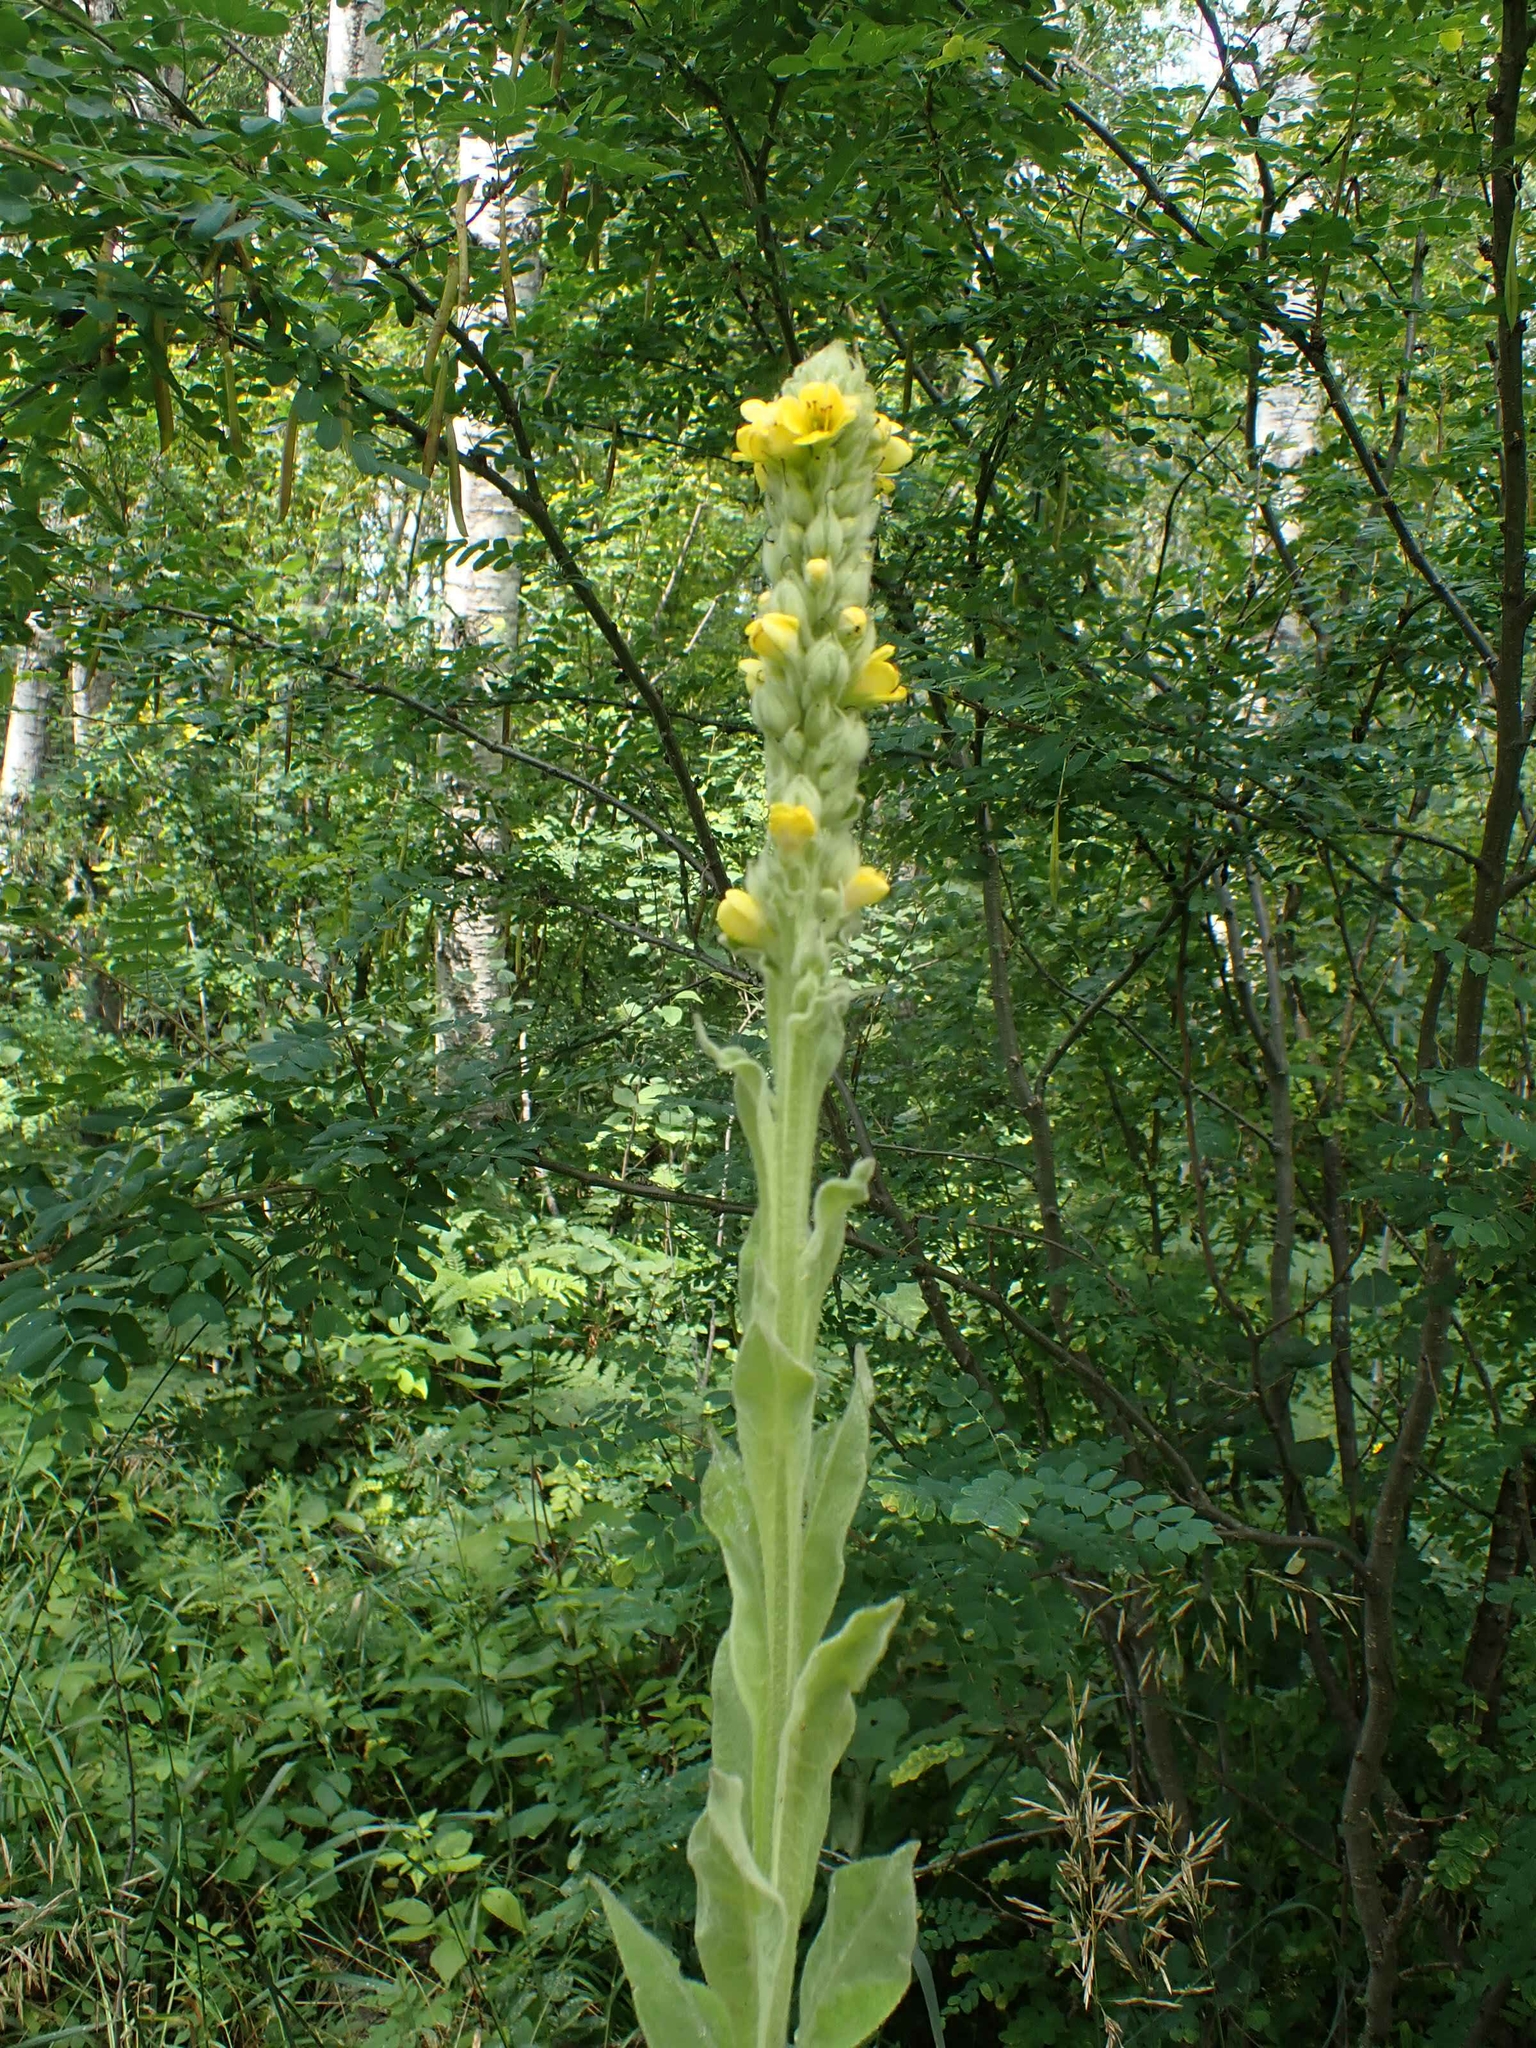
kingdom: Plantae
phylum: Tracheophyta
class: Magnoliopsida
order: Lamiales
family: Scrophulariaceae
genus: Verbascum
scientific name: Verbascum thapsus
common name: Common mullein
